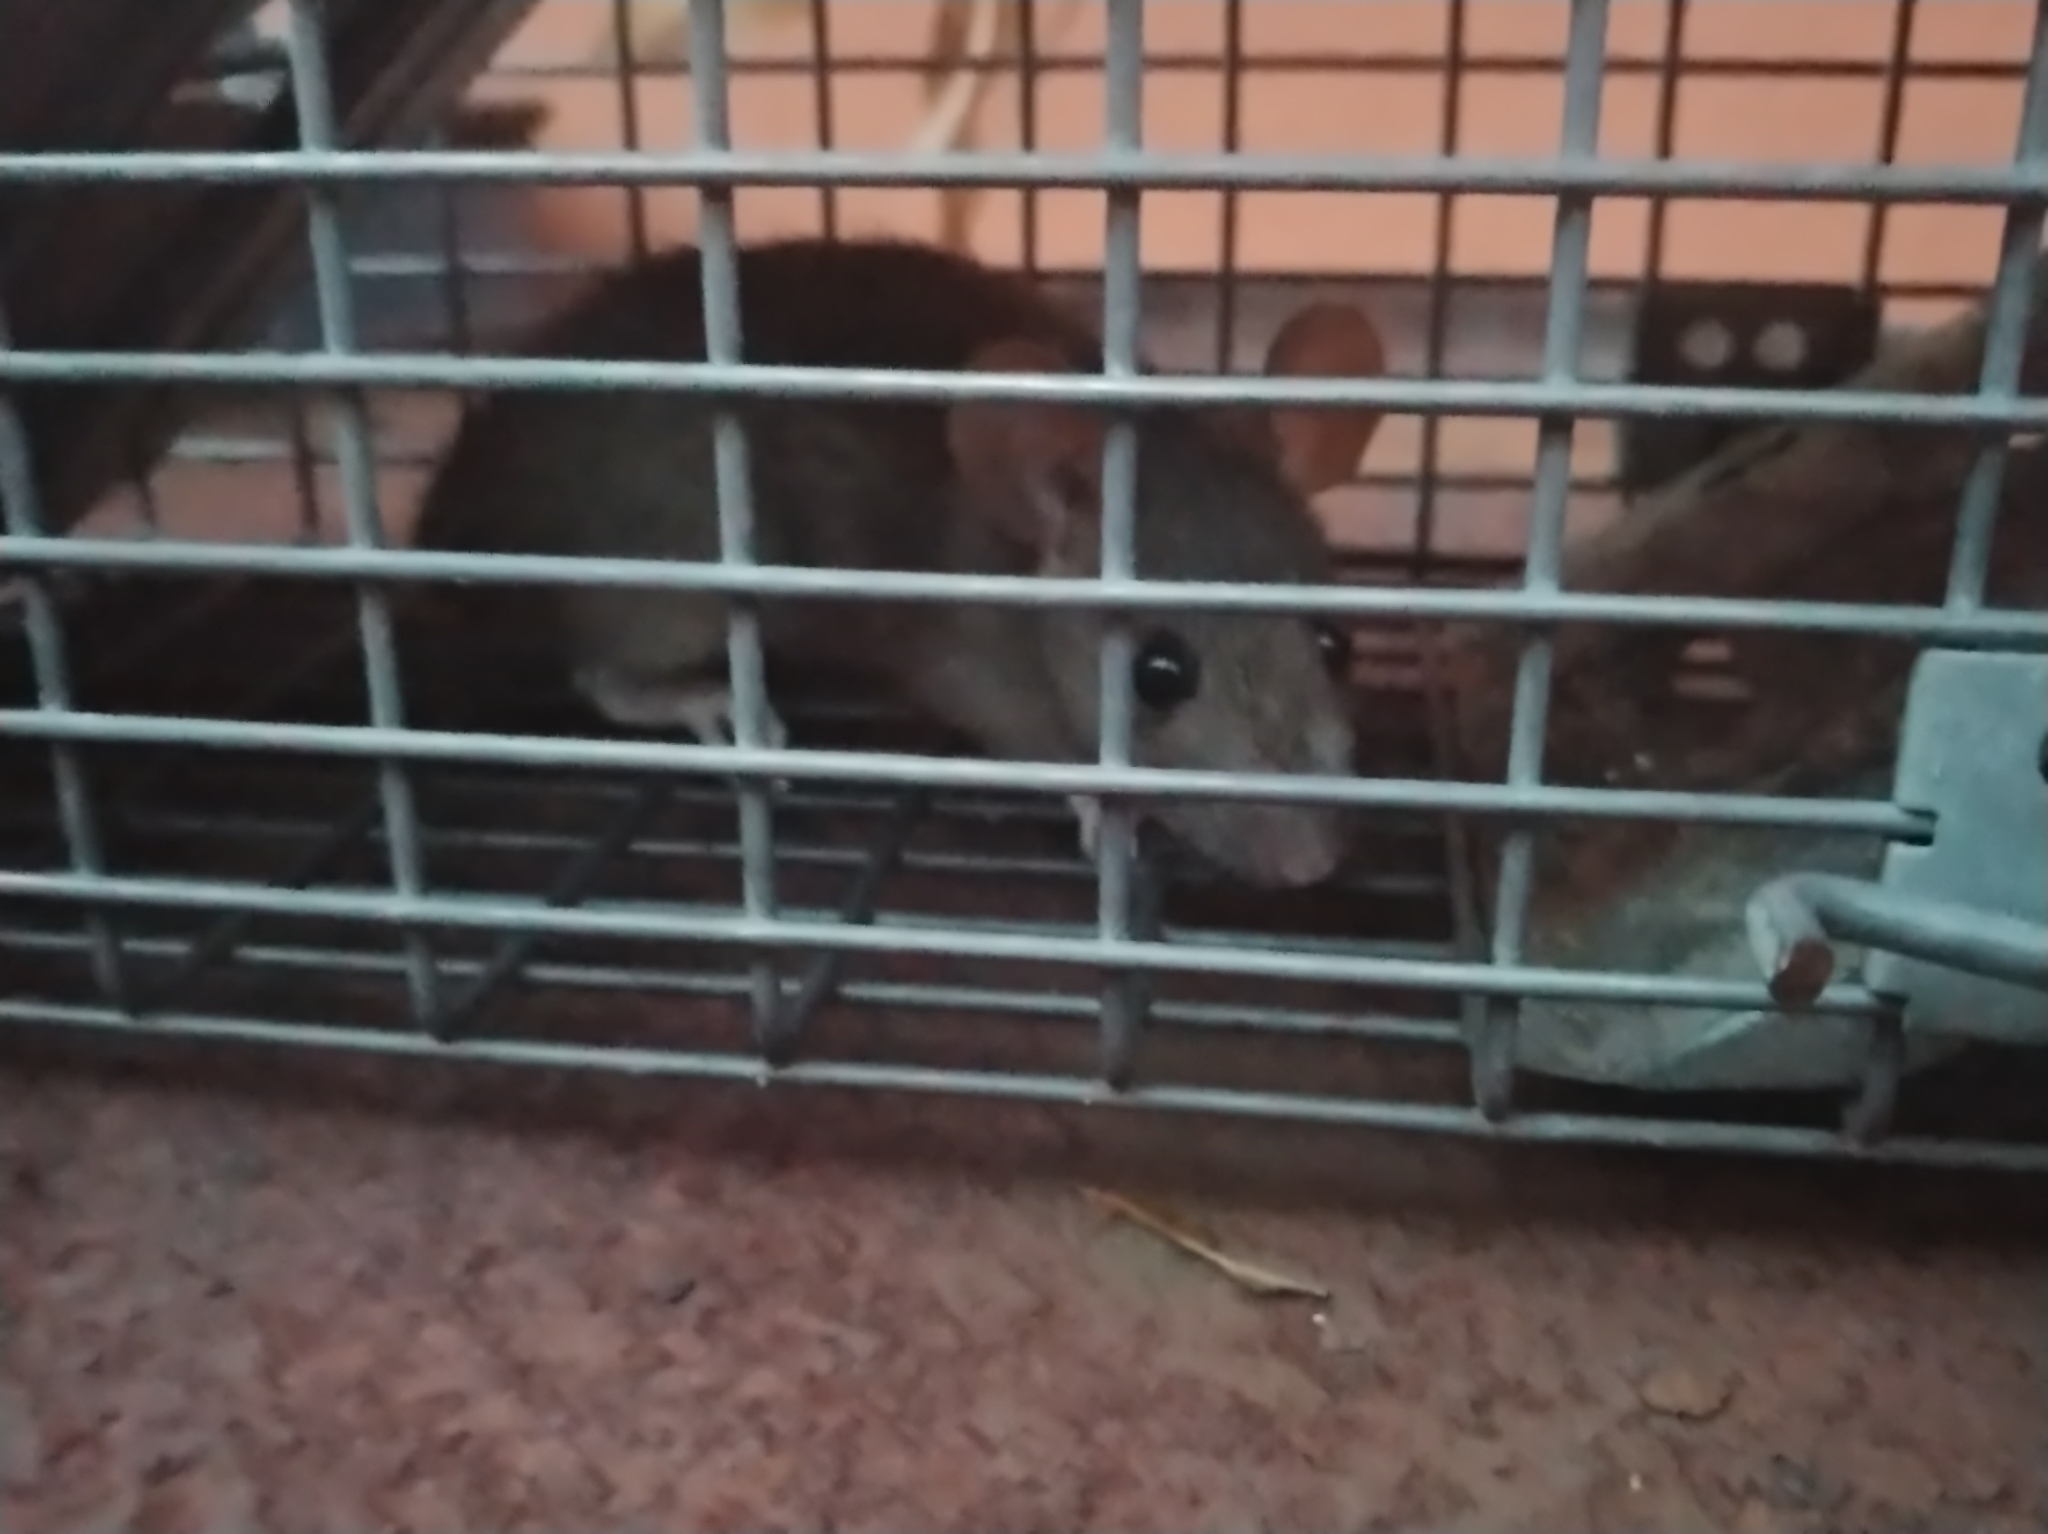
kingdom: Animalia
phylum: Chordata
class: Mammalia
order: Rodentia
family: Muridae
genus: Rattus
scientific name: Rattus rattus
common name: Black rat
